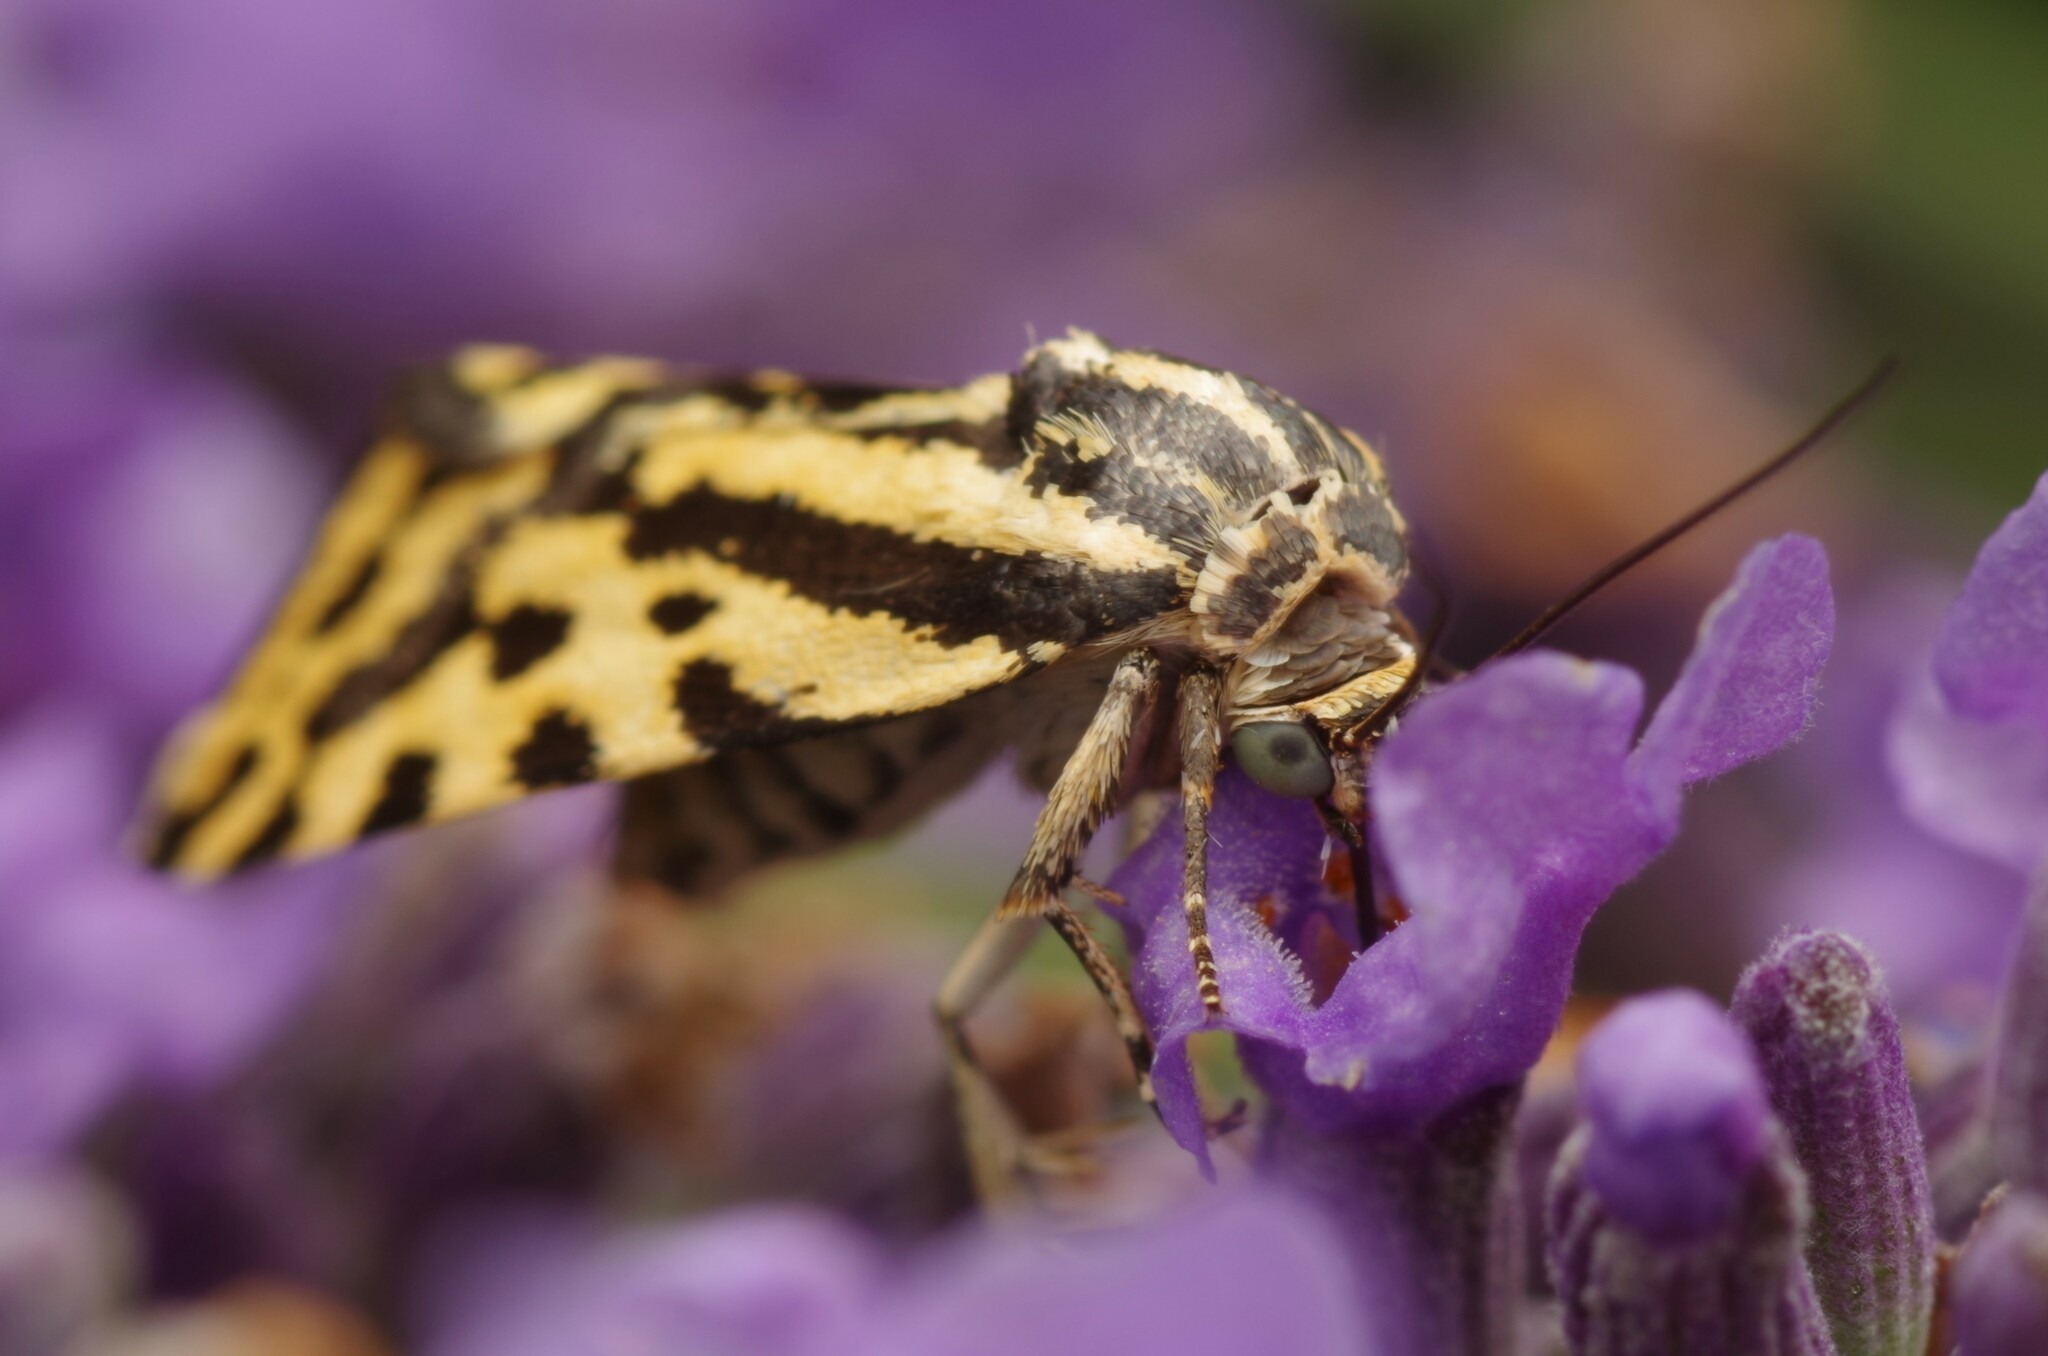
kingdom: Animalia
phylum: Arthropoda
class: Insecta
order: Lepidoptera
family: Noctuidae
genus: Acontia
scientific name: Acontia trabealis
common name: Spotted sulphur
